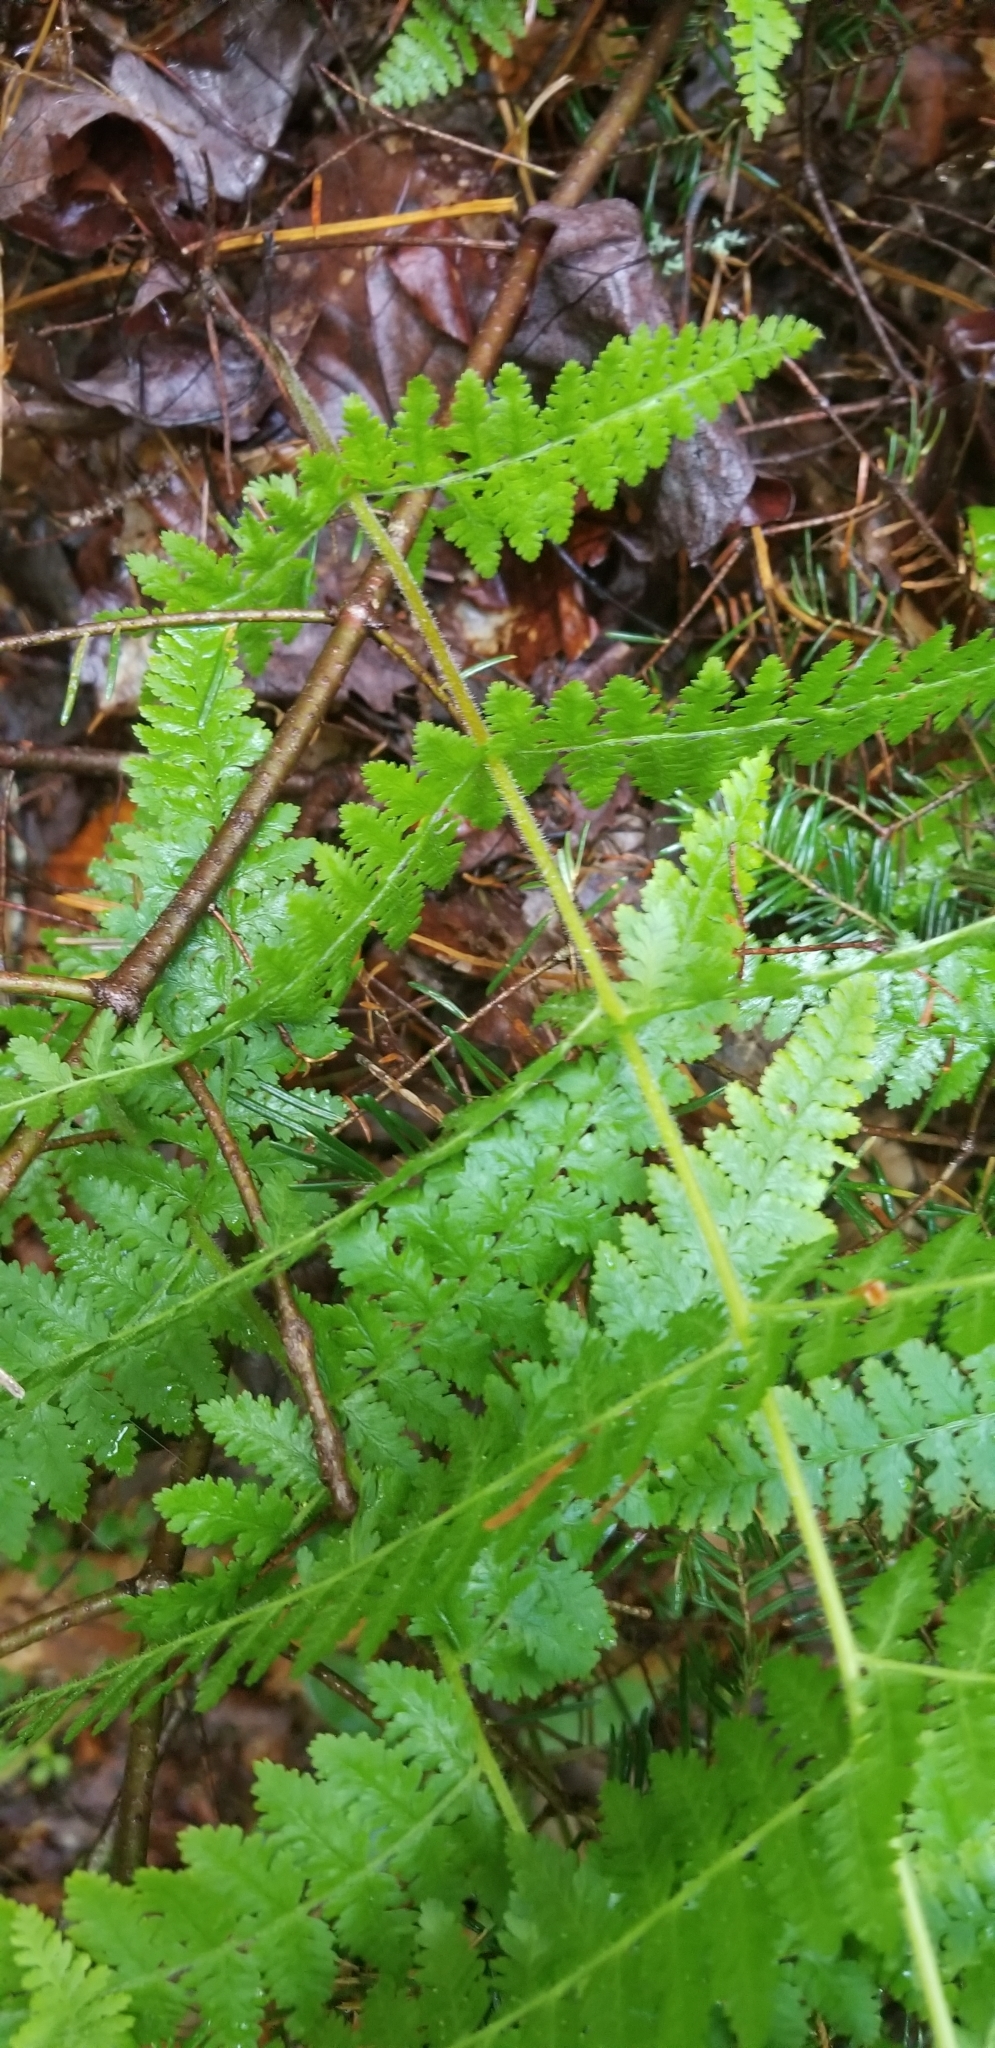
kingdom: Plantae
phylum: Tracheophyta
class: Polypodiopsida
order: Polypodiales
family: Dennstaedtiaceae
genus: Sitobolium
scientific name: Sitobolium punctilobum
